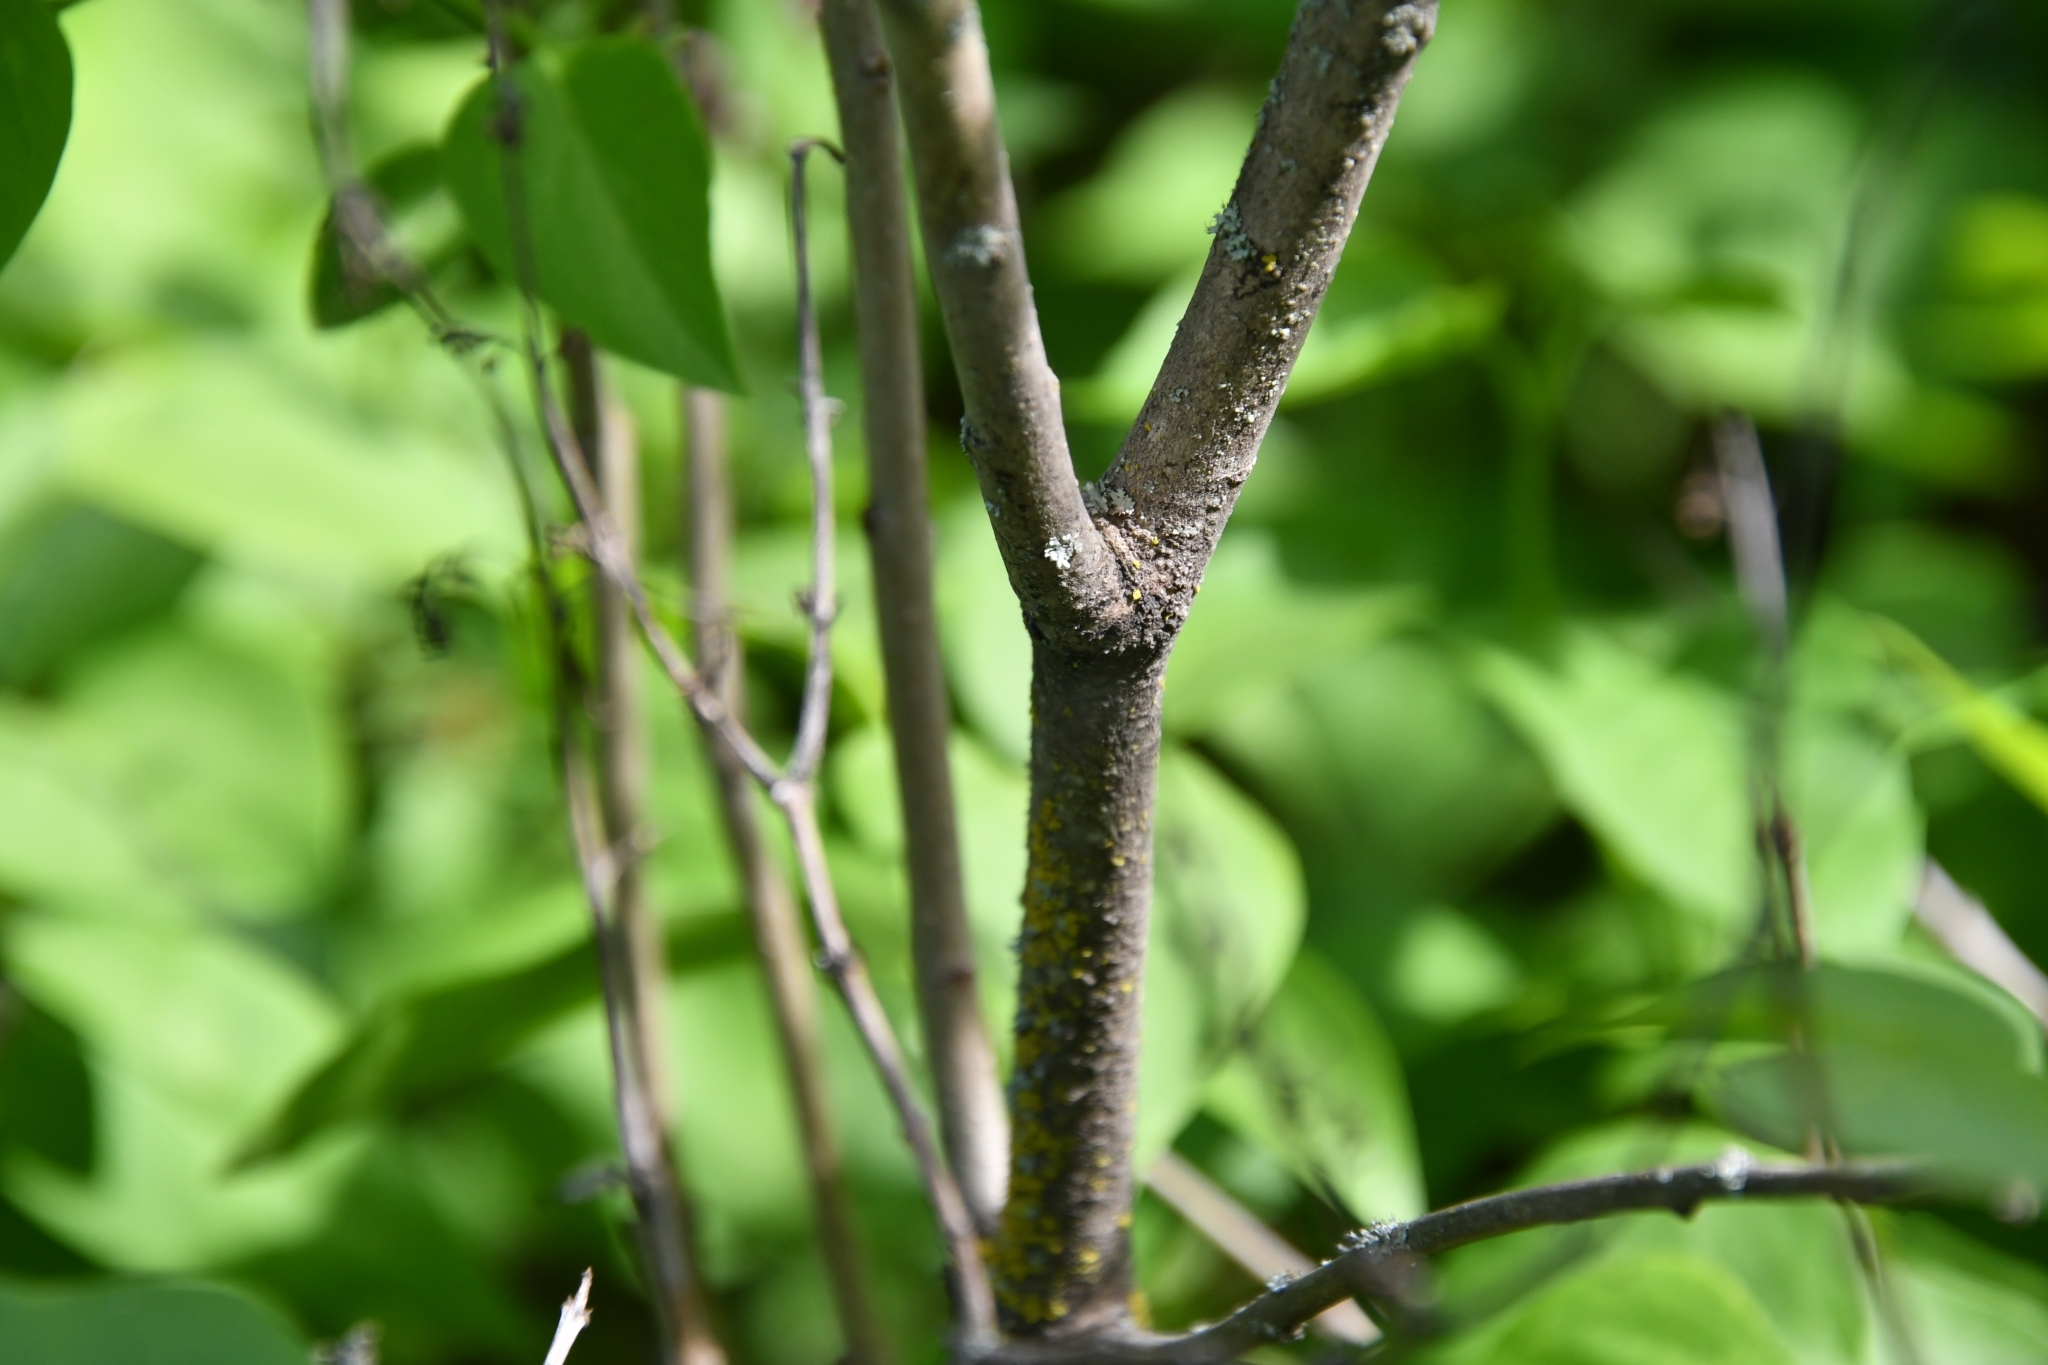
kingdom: Plantae
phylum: Tracheophyta
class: Magnoliopsida
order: Lamiales
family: Oleaceae
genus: Syringa
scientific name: Syringa vulgaris
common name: Common lilac
